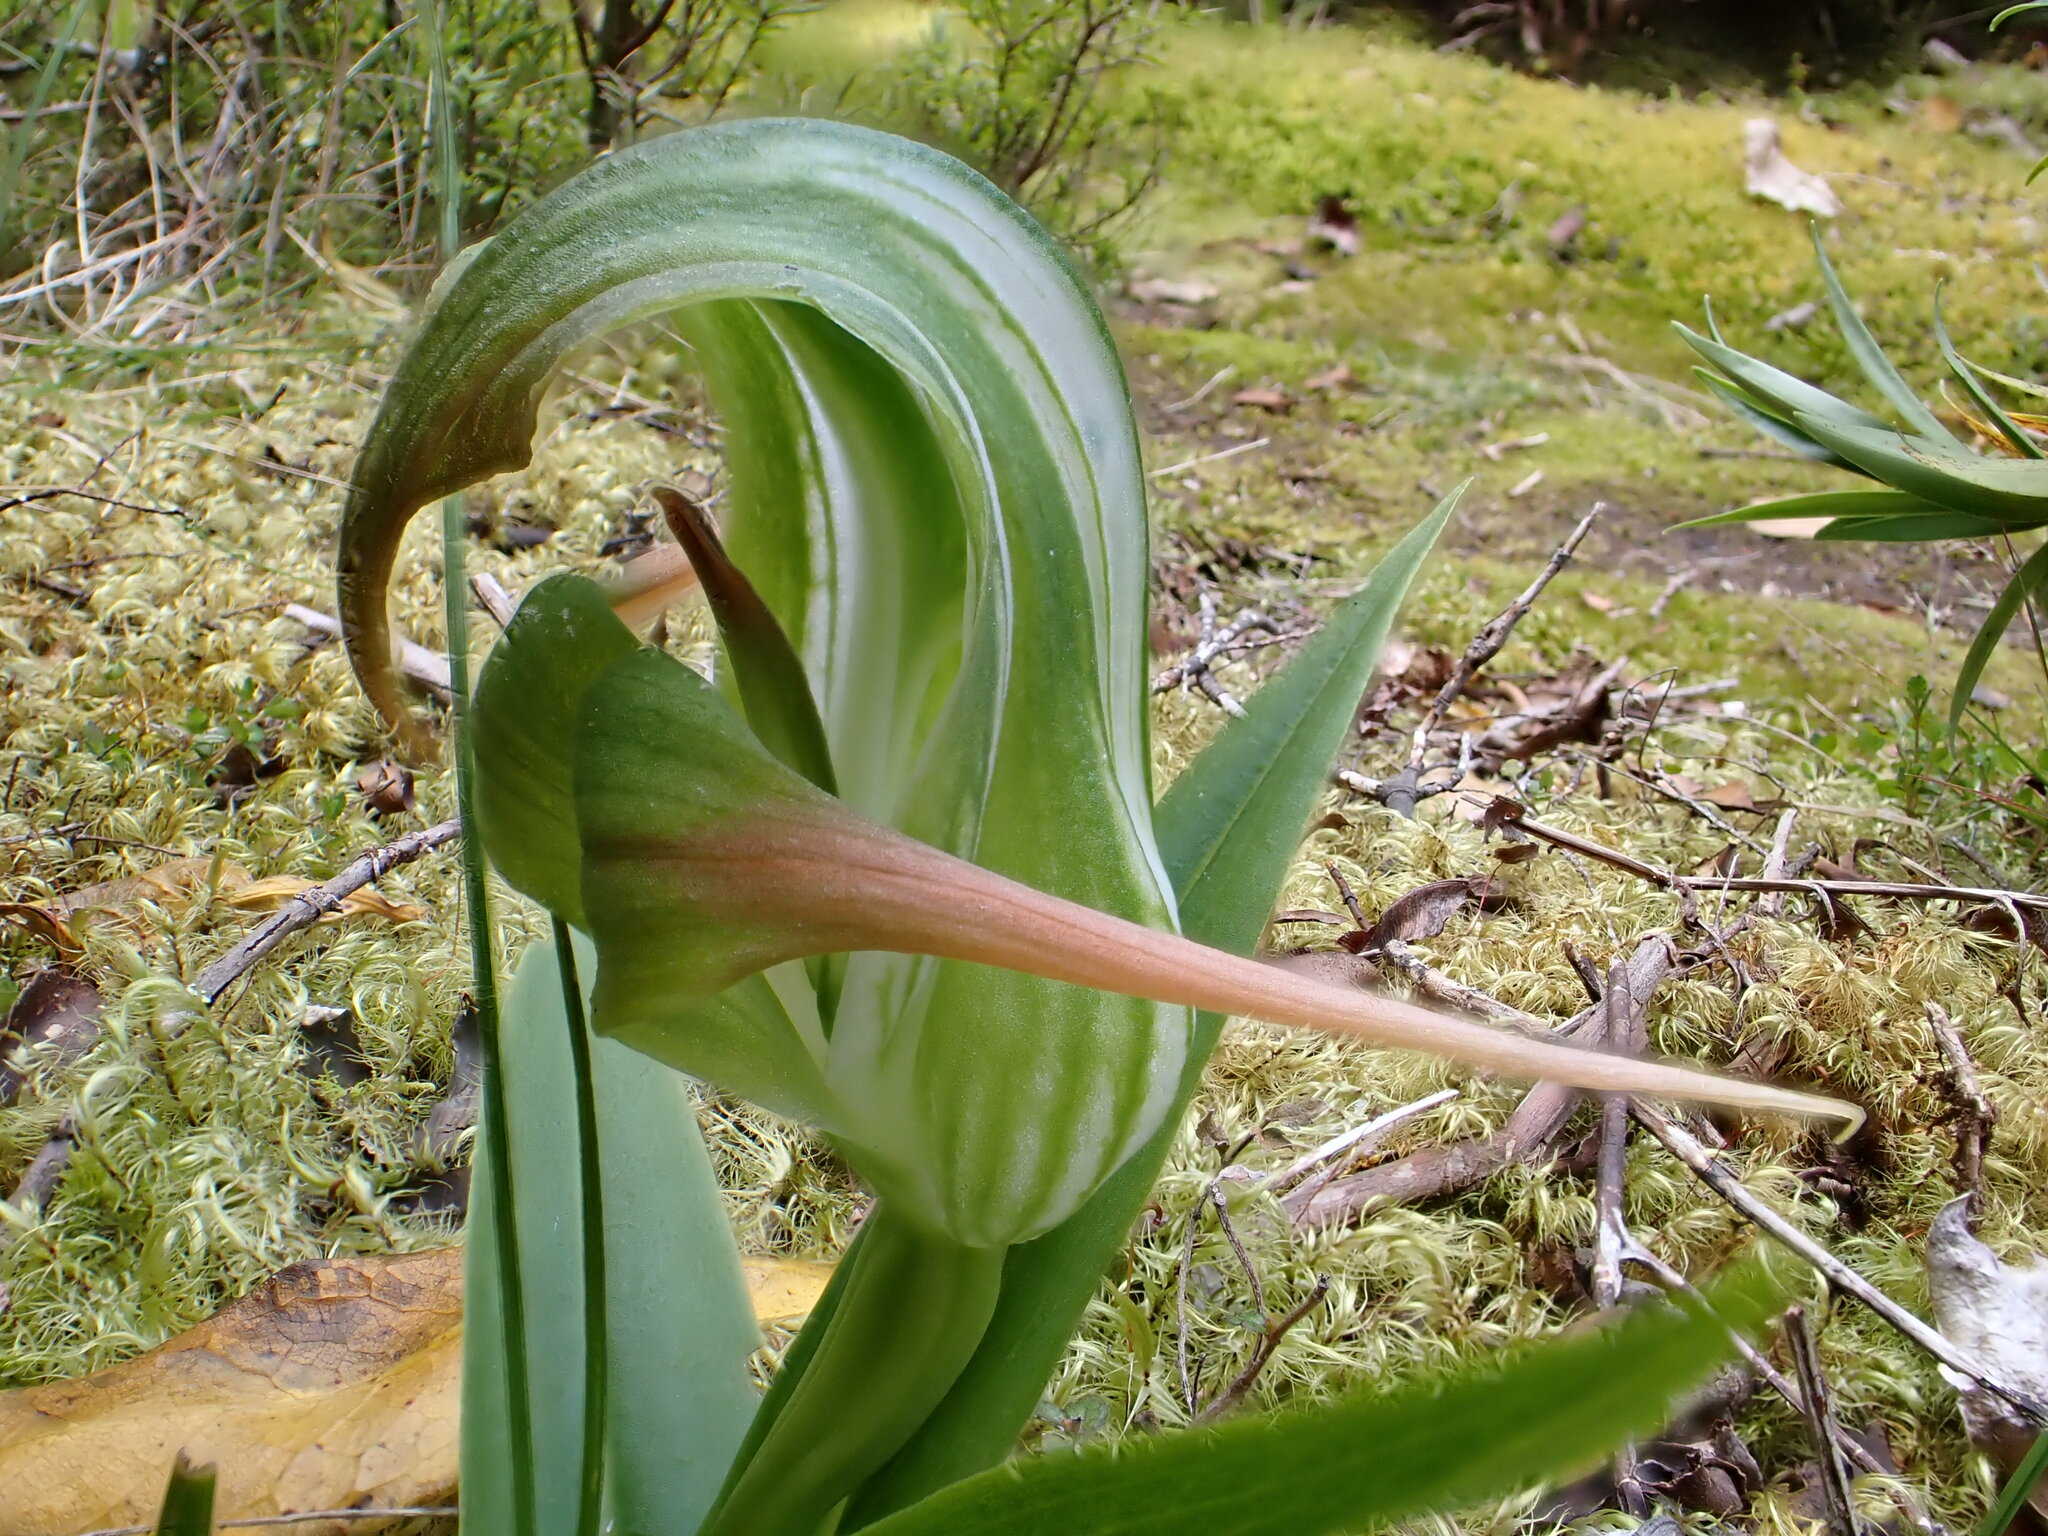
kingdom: Plantae
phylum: Tracheophyta
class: Liliopsida
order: Asparagales
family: Orchidaceae
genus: Pterostylis
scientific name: Pterostylis patens
